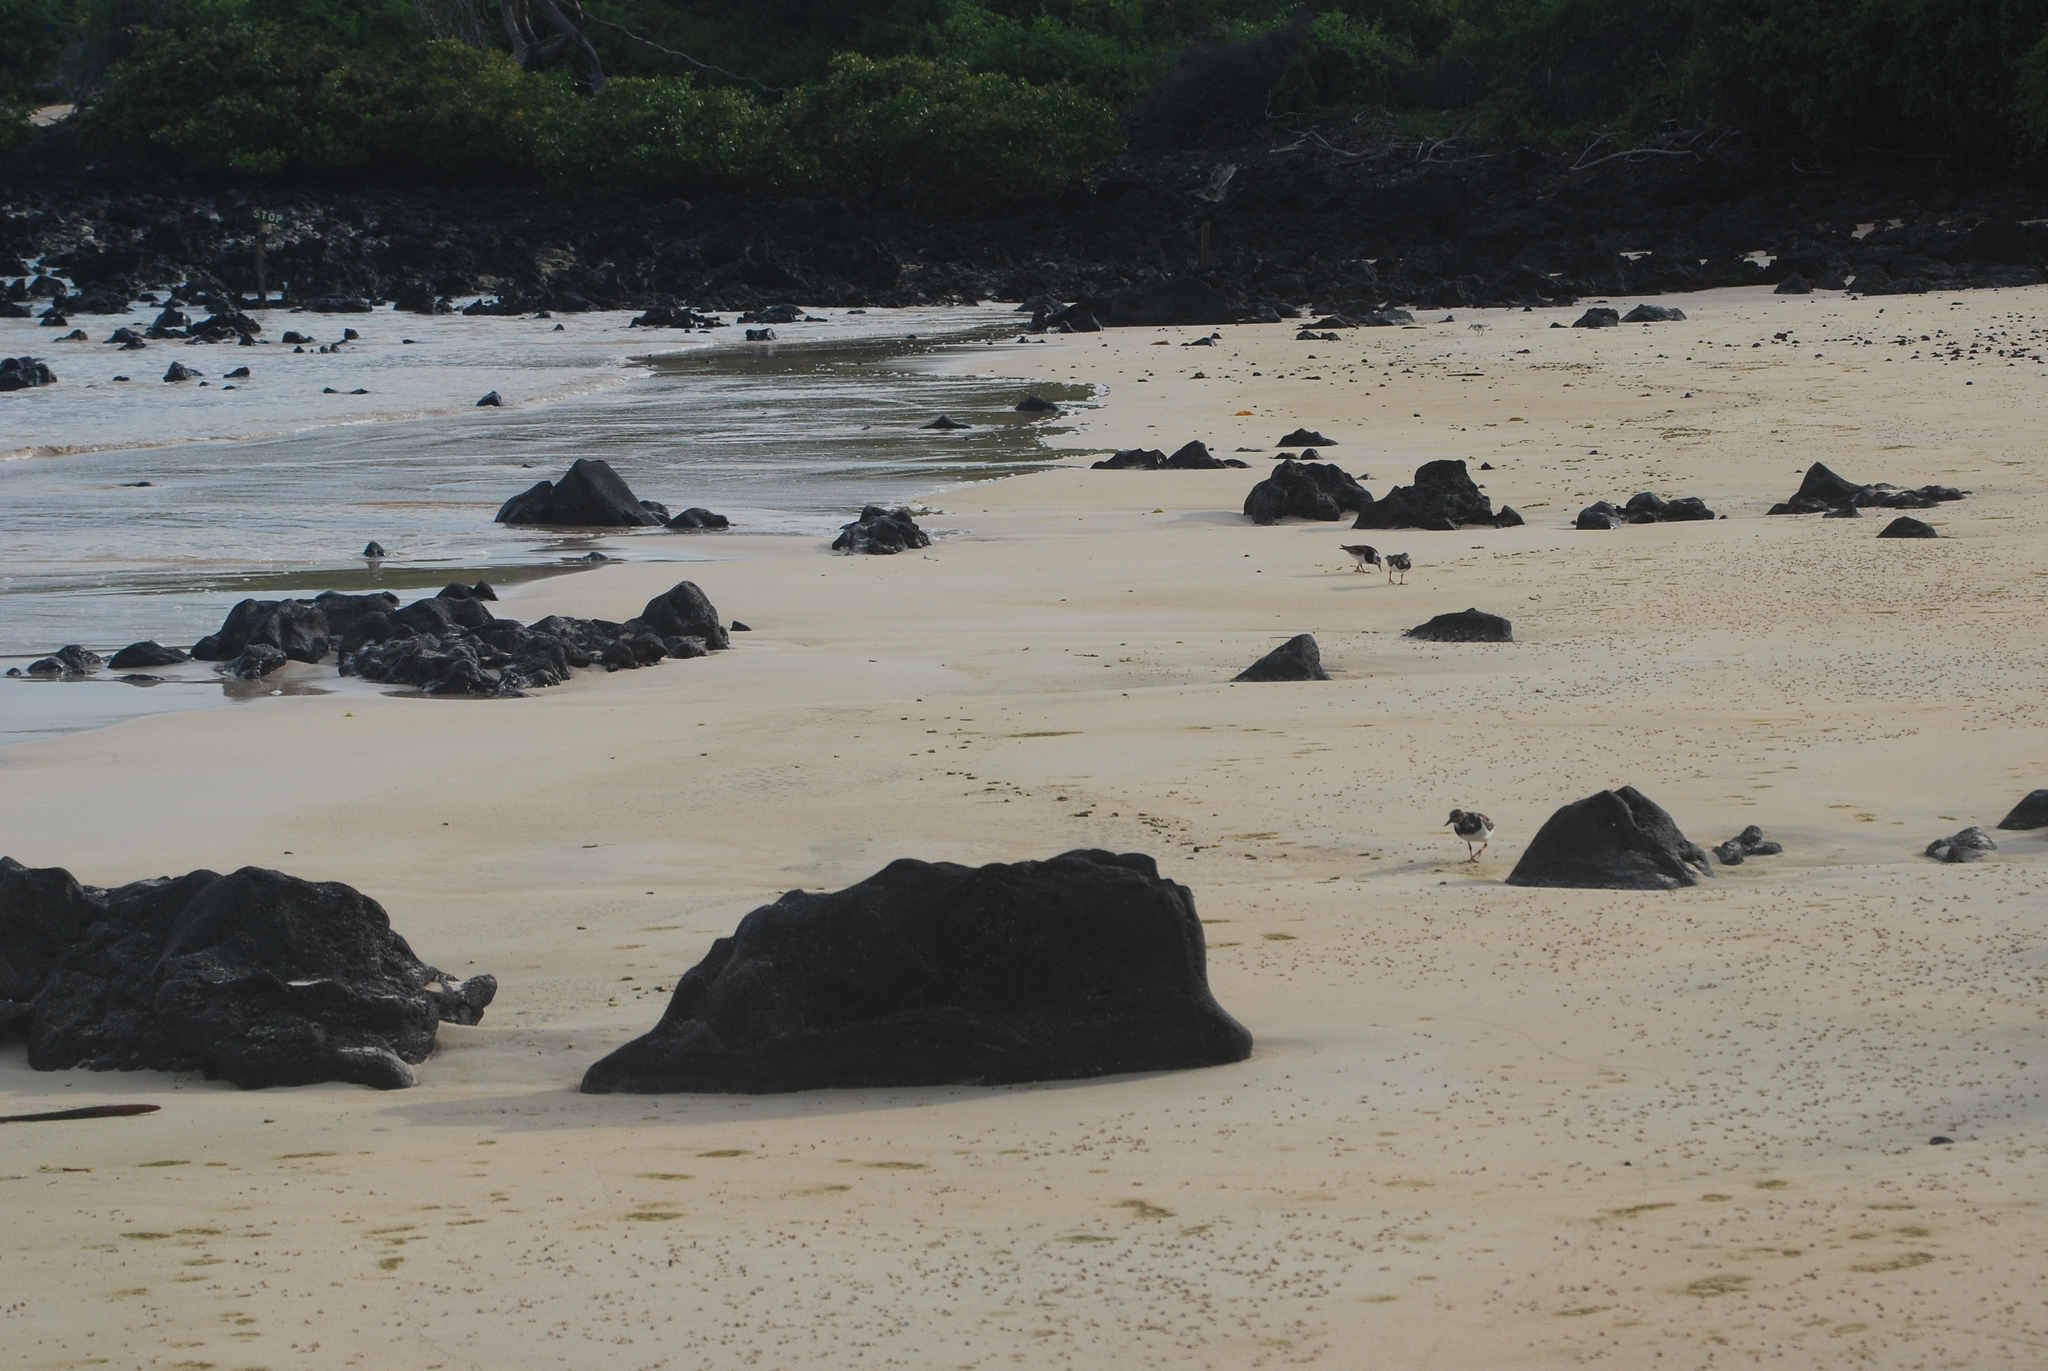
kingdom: Animalia
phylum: Chordata
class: Aves
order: Charadriiformes
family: Scolopacidae
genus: Arenaria
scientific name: Arenaria interpres
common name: Ruddy turnstone
